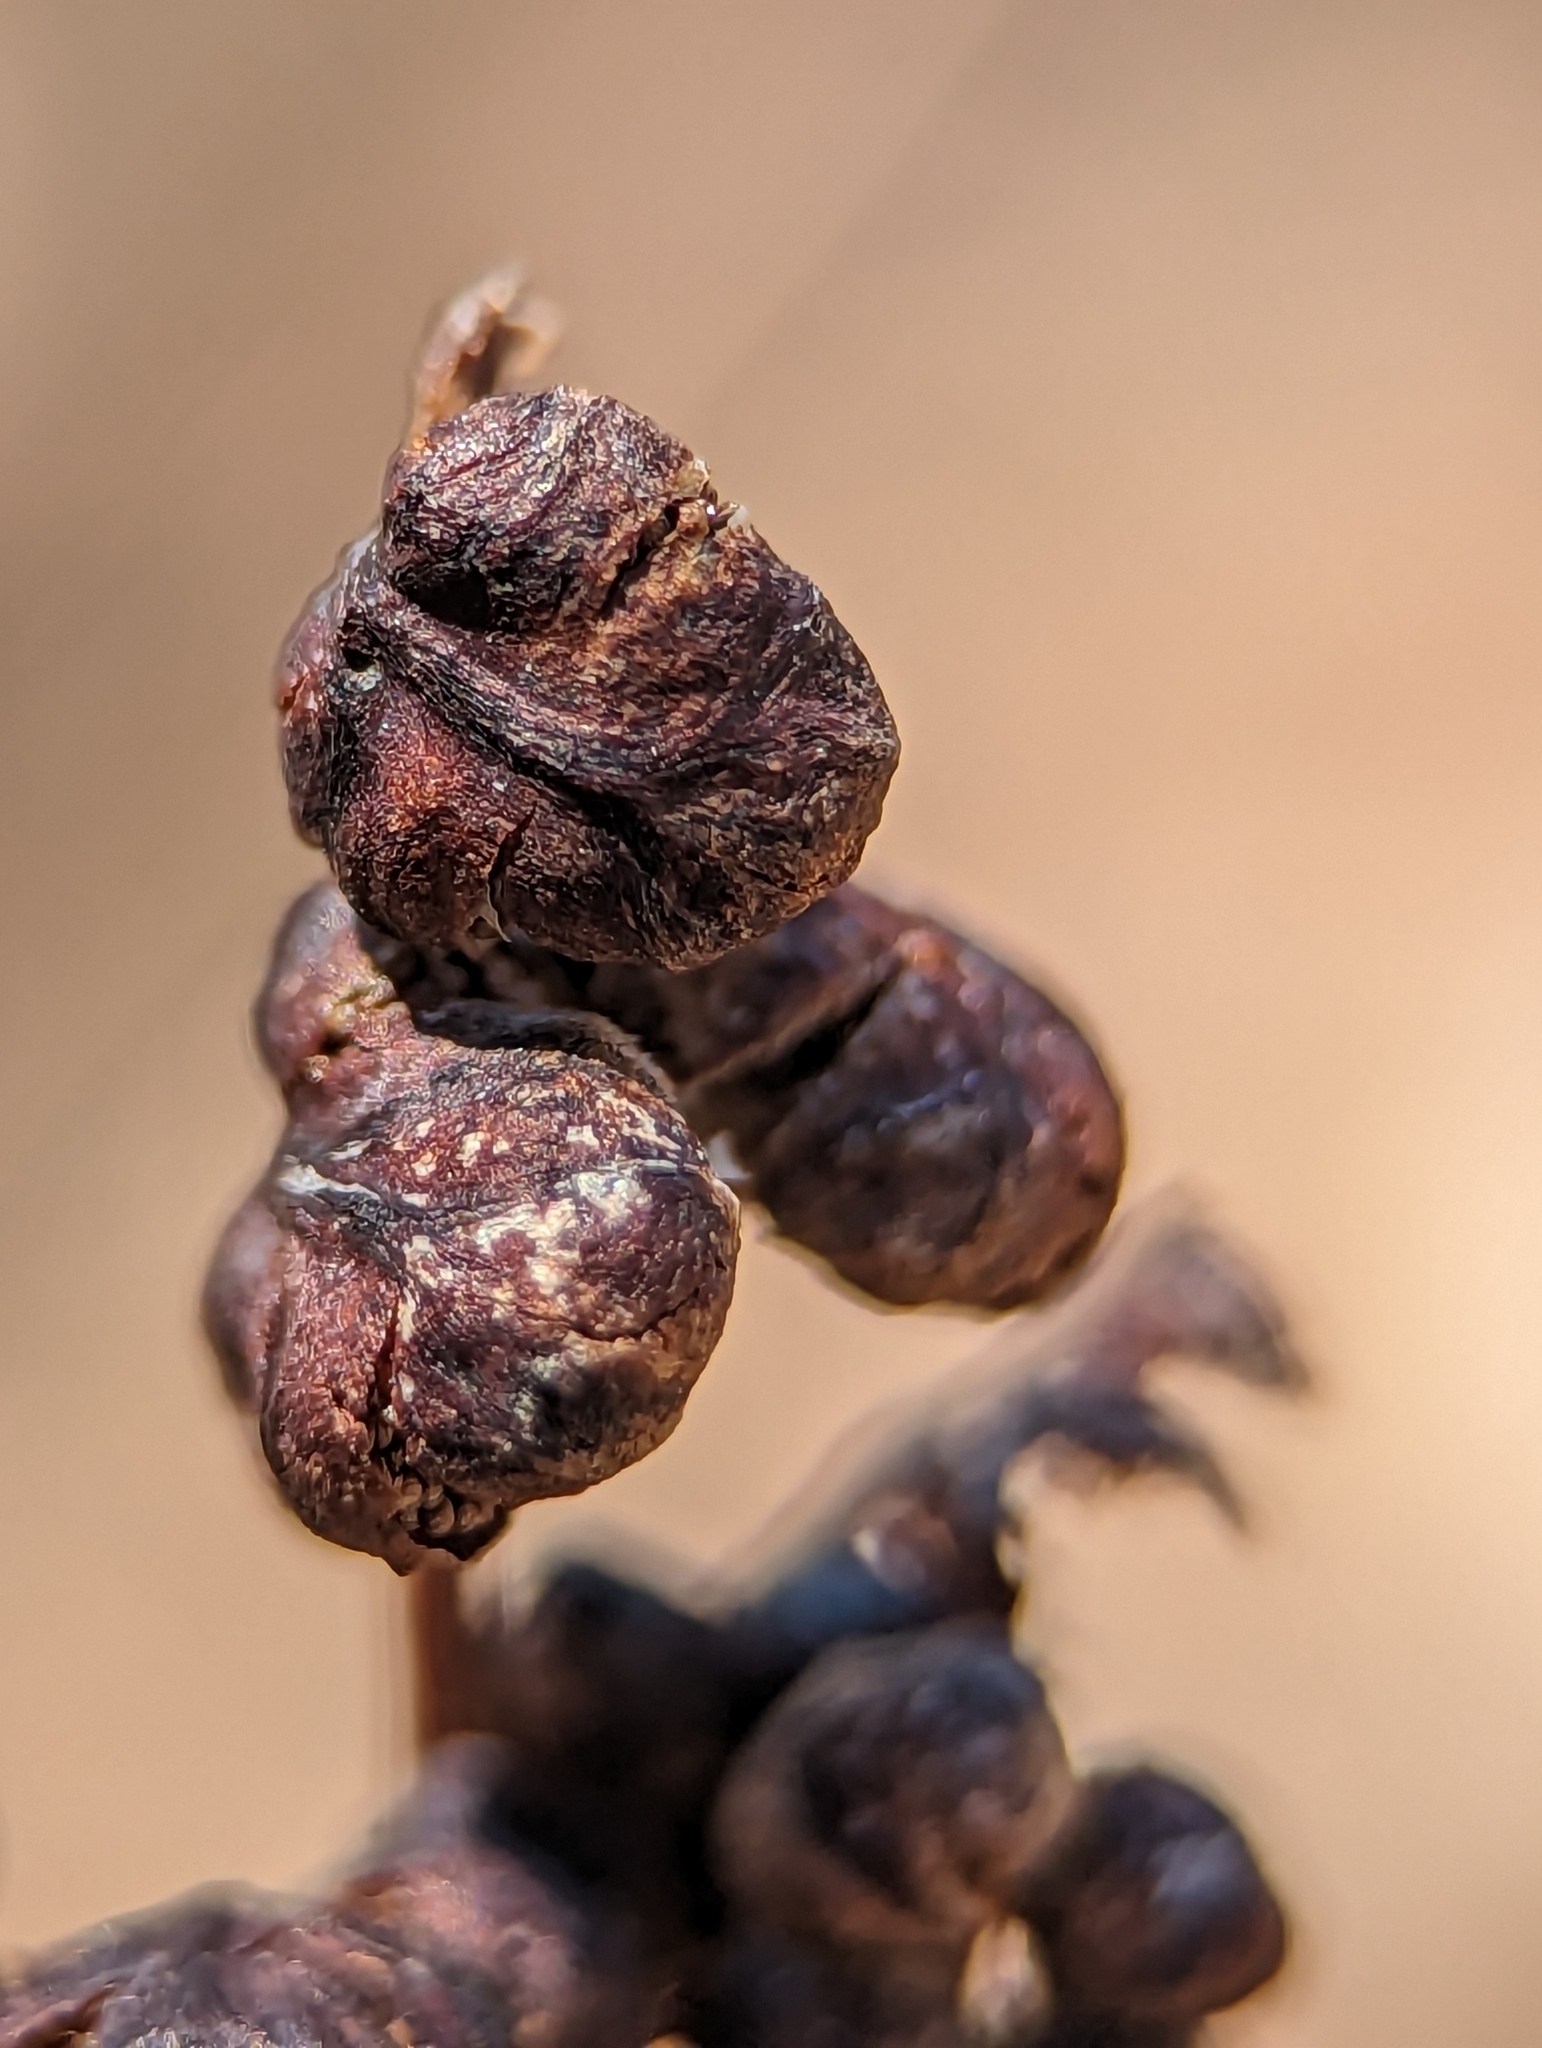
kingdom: Plantae
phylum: Tracheophyta
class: Polypodiopsida
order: Polypodiales
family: Onocleaceae
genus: Onoclea
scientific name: Onoclea sensibilis
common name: Sensitive fern
